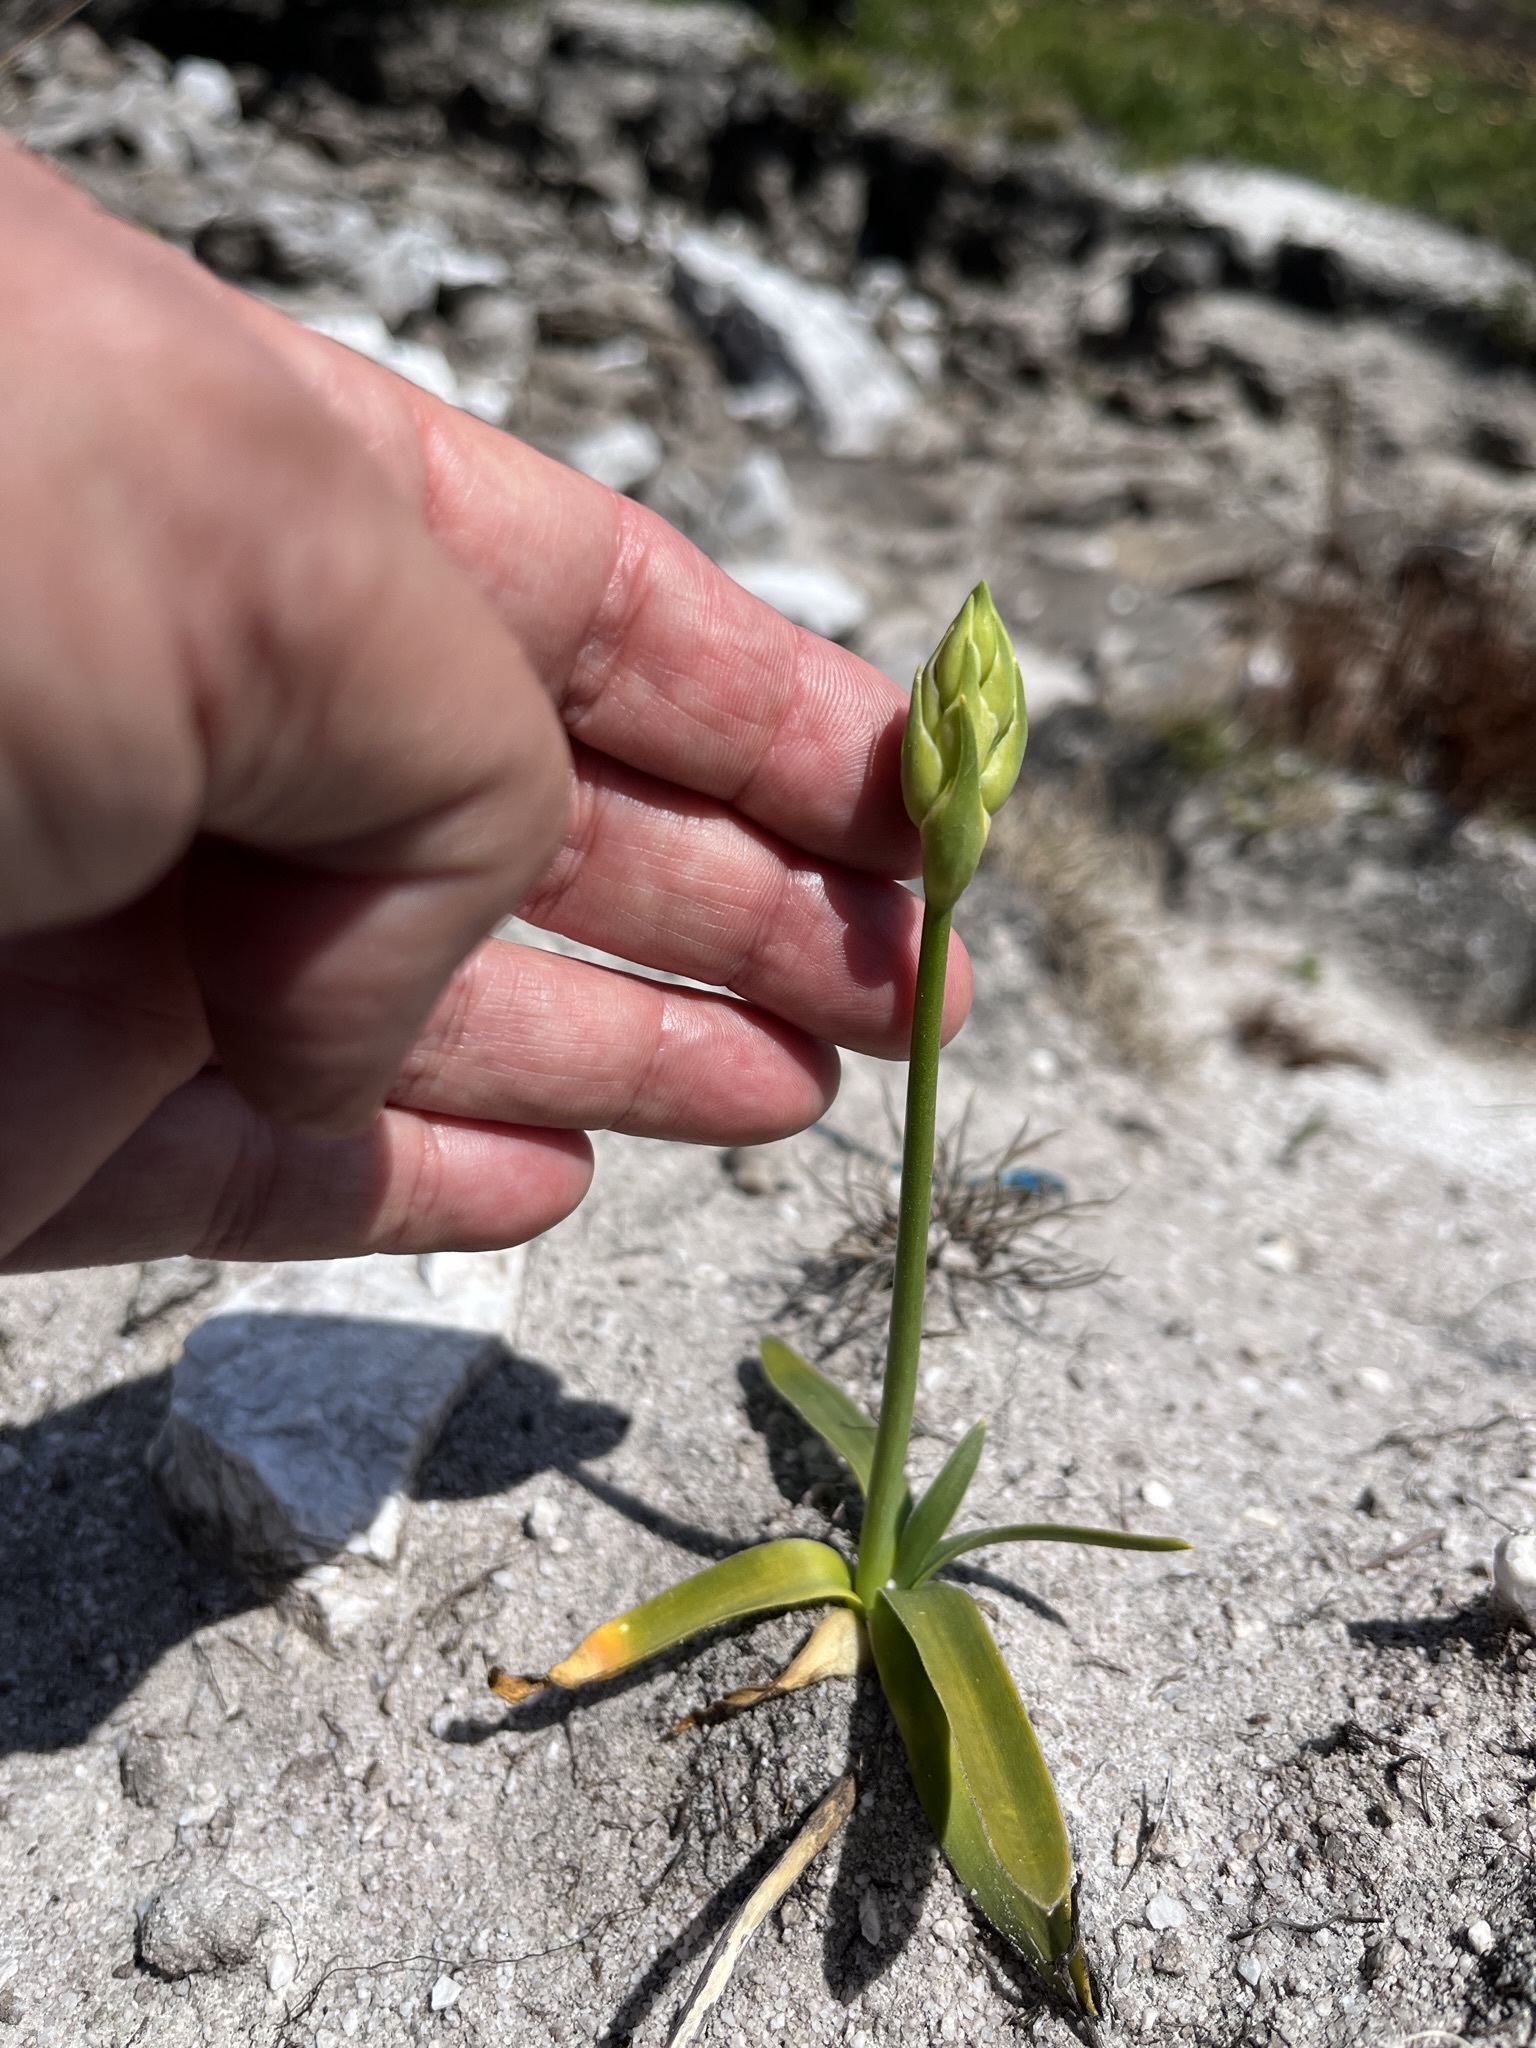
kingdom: Plantae
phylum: Tracheophyta
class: Liliopsida
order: Asparagales
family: Asparagaceae
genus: Ornithogalum
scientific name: Ornithogalum thyrsoides
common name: Chincherinchee
